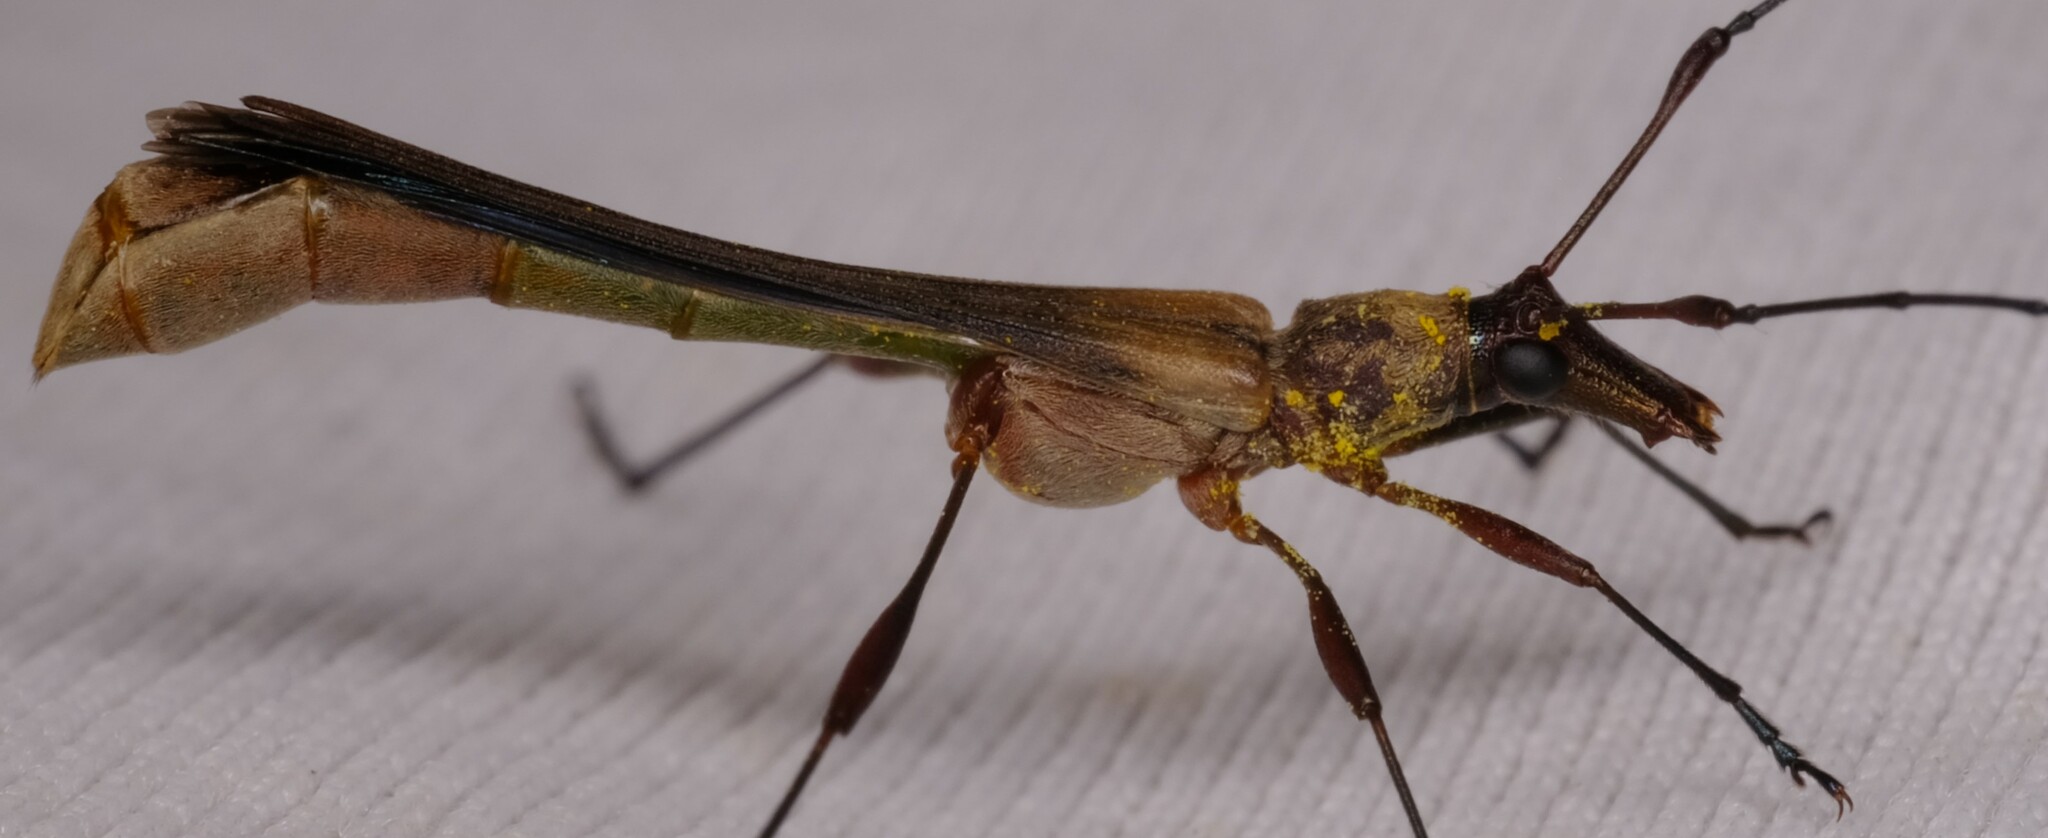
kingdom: Animalia
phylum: Arthropoda
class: Insecta
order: Coleoptera
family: Cerambycidae
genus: Enchoptera
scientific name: Enchoptera apicalis
